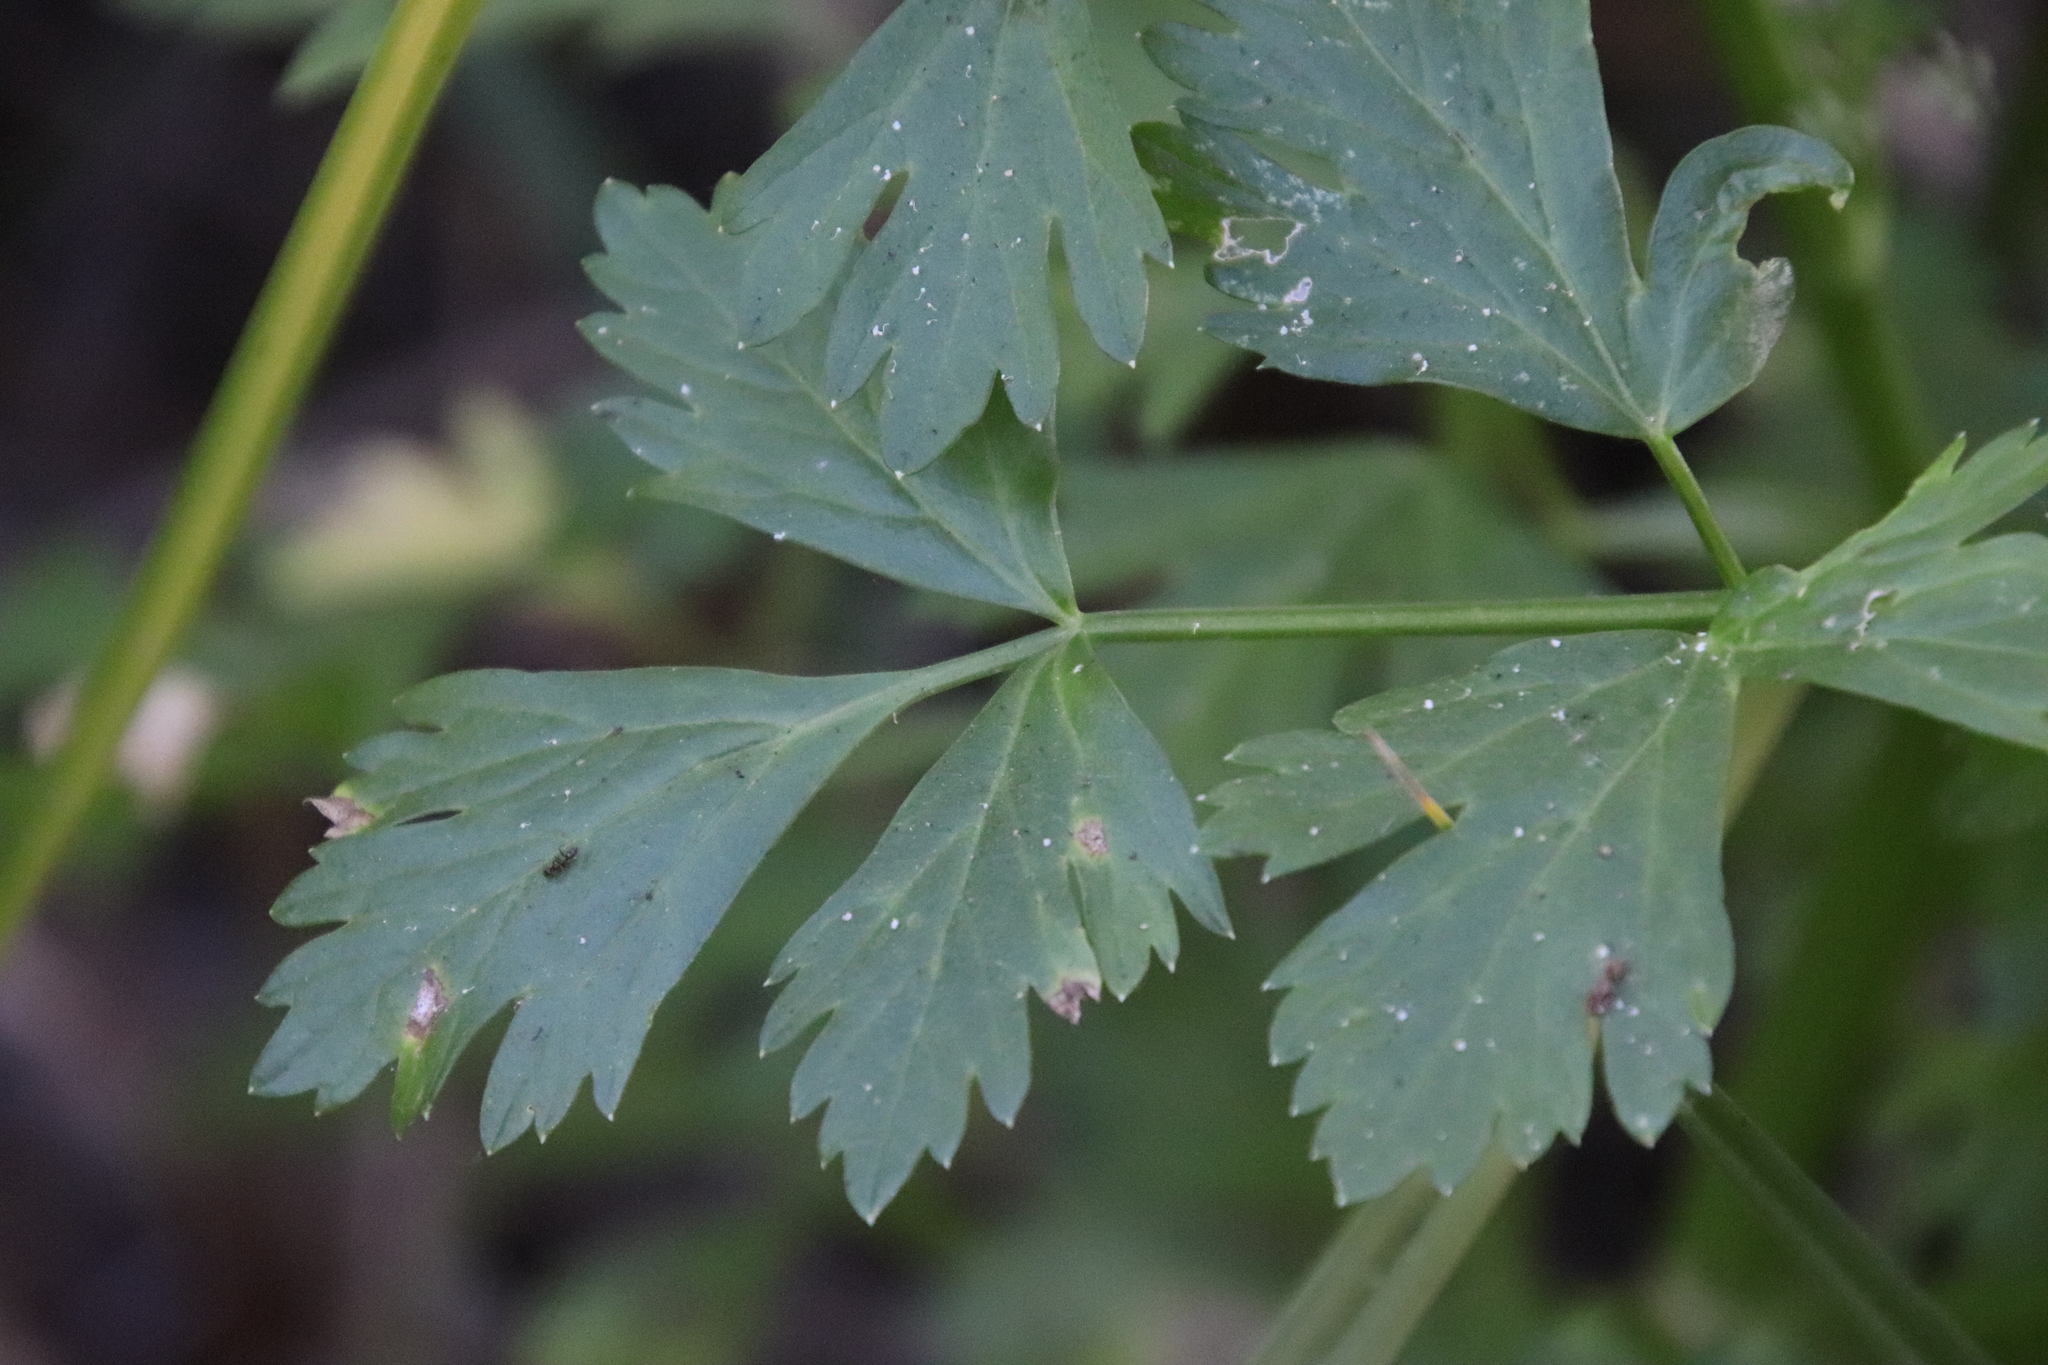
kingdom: Plantae
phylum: Tracheophyta
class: Magnoliopsida
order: Apiales
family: Apiaceae
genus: Apium
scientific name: Apium graveolens
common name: Wild celery
